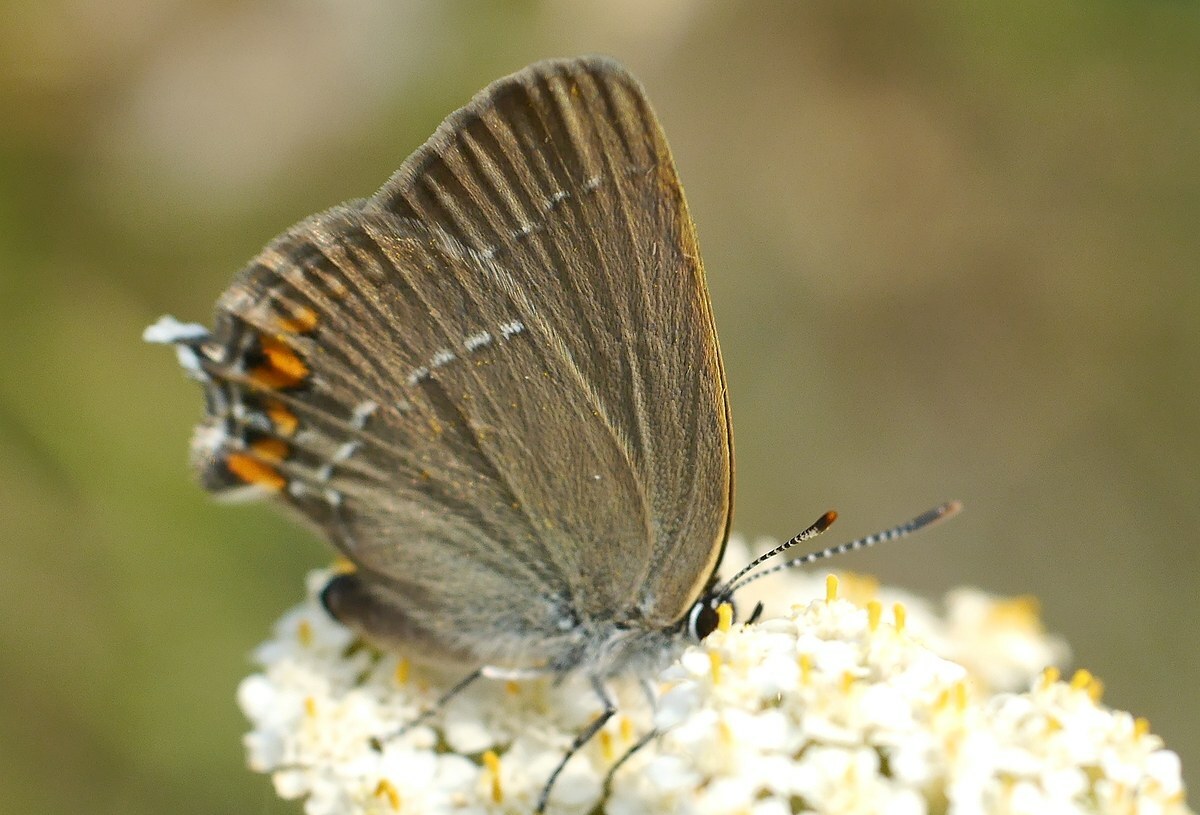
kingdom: Animalia
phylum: Arthropoda
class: Insecta
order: Lepidoptera
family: Lycaenidae
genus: Strymon
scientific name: Strymon acaciae
